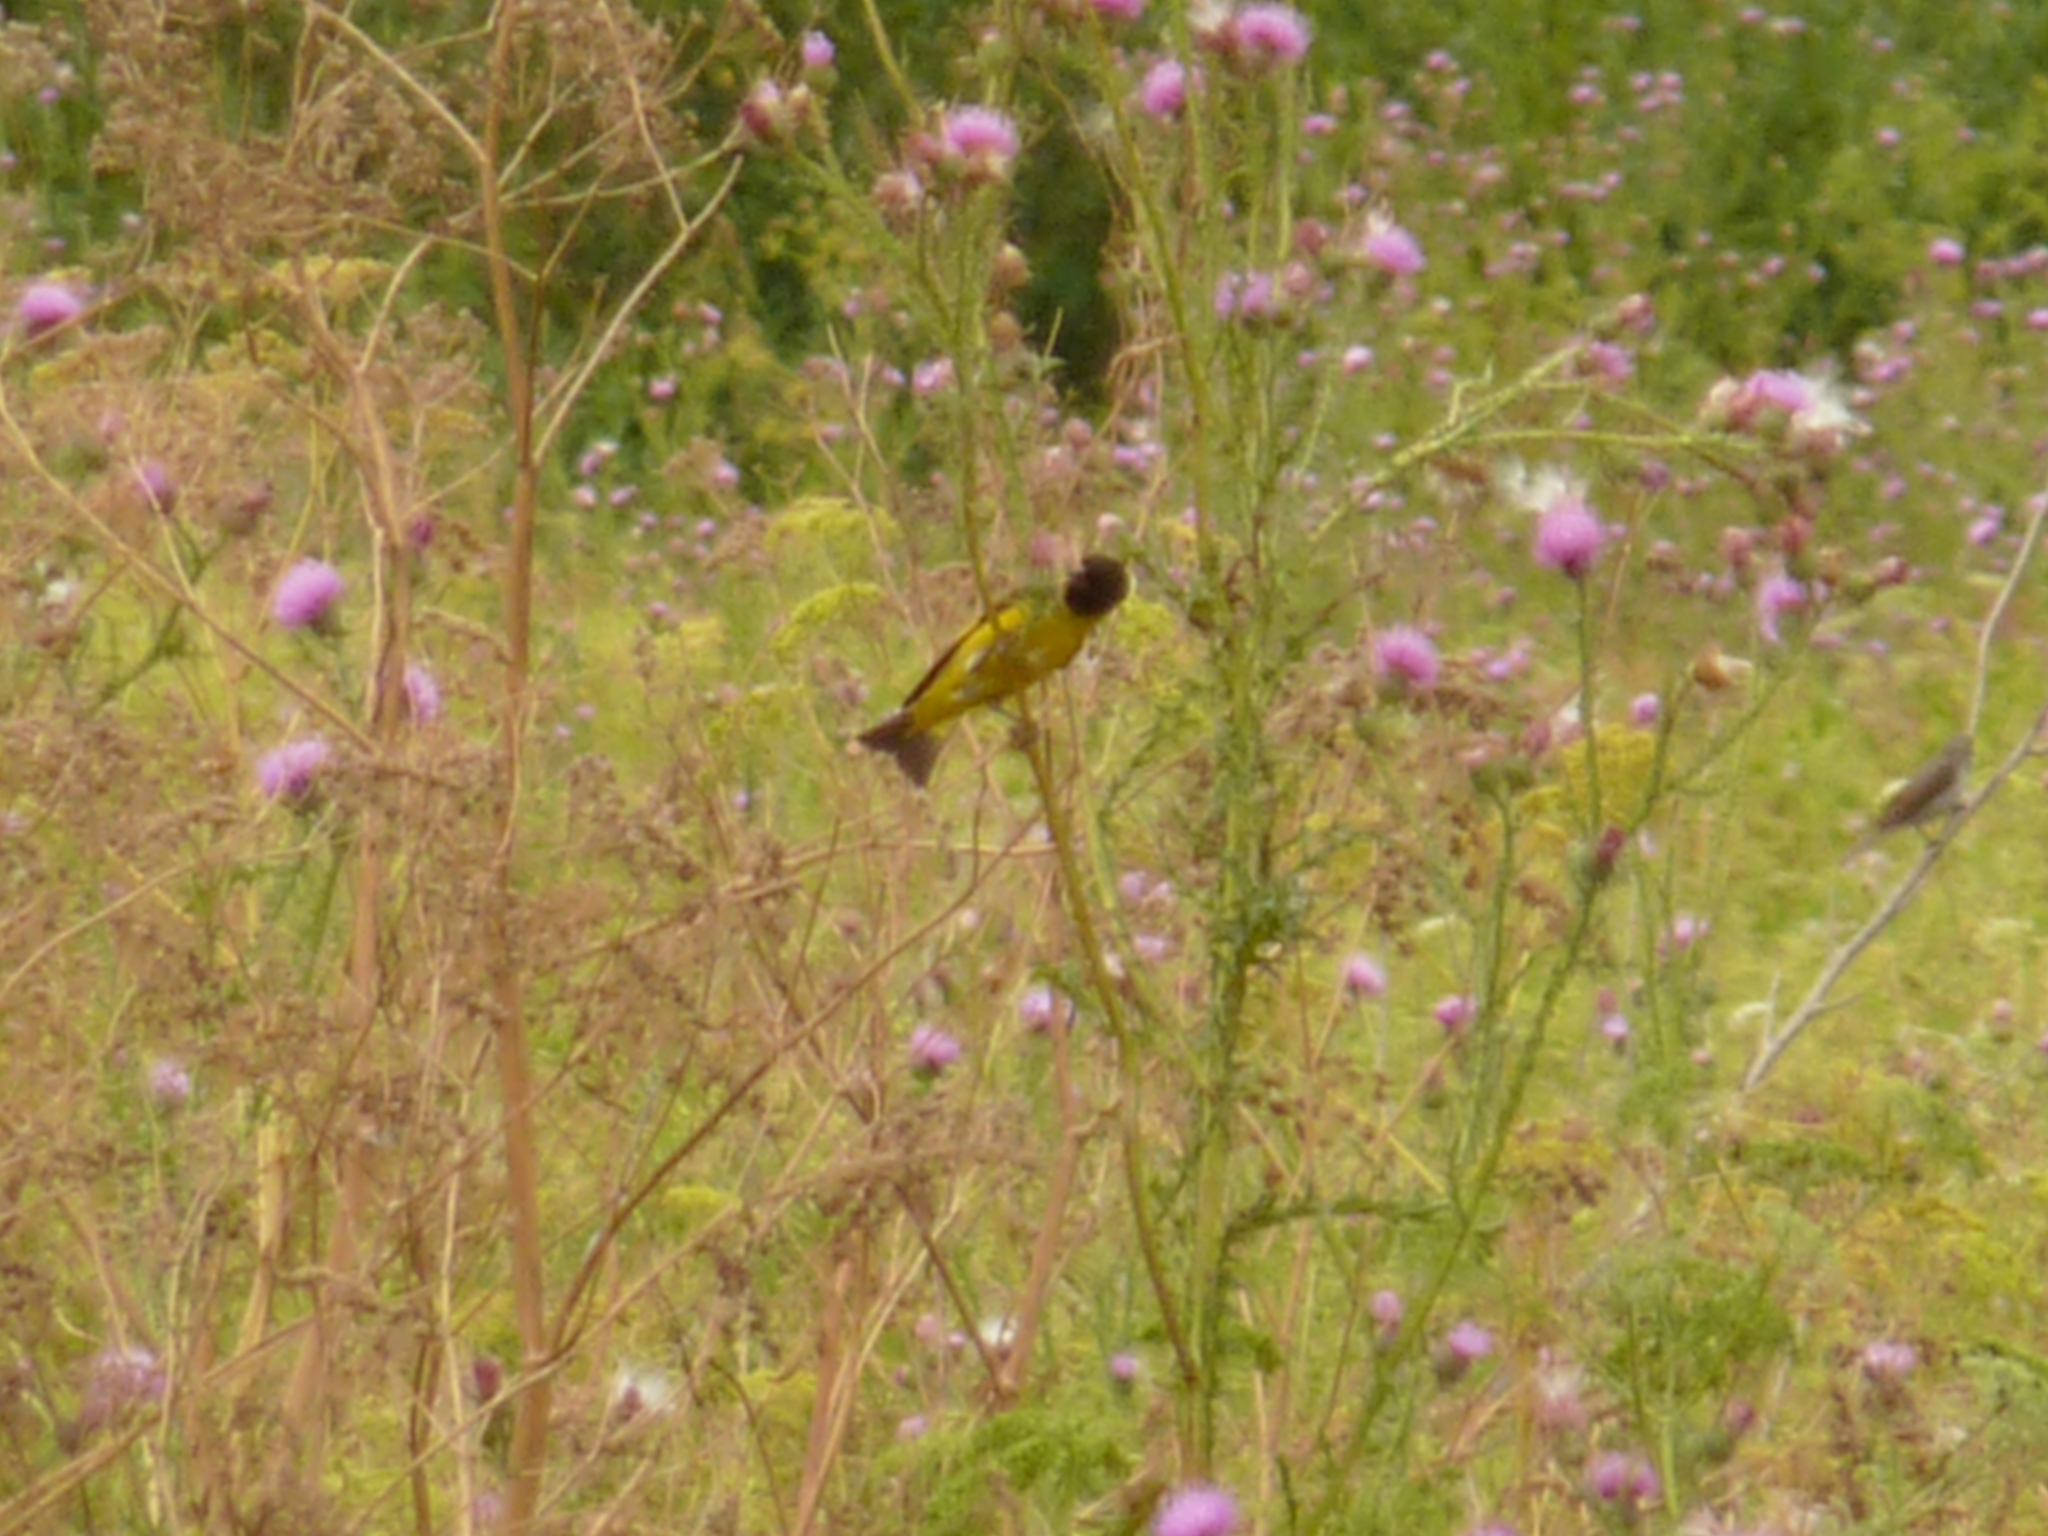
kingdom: Animalia
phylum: Chordata
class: Aves
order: Passeriformes
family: Fringillidae
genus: Spinus
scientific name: Spinus magellanicus
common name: Hooded siskin
